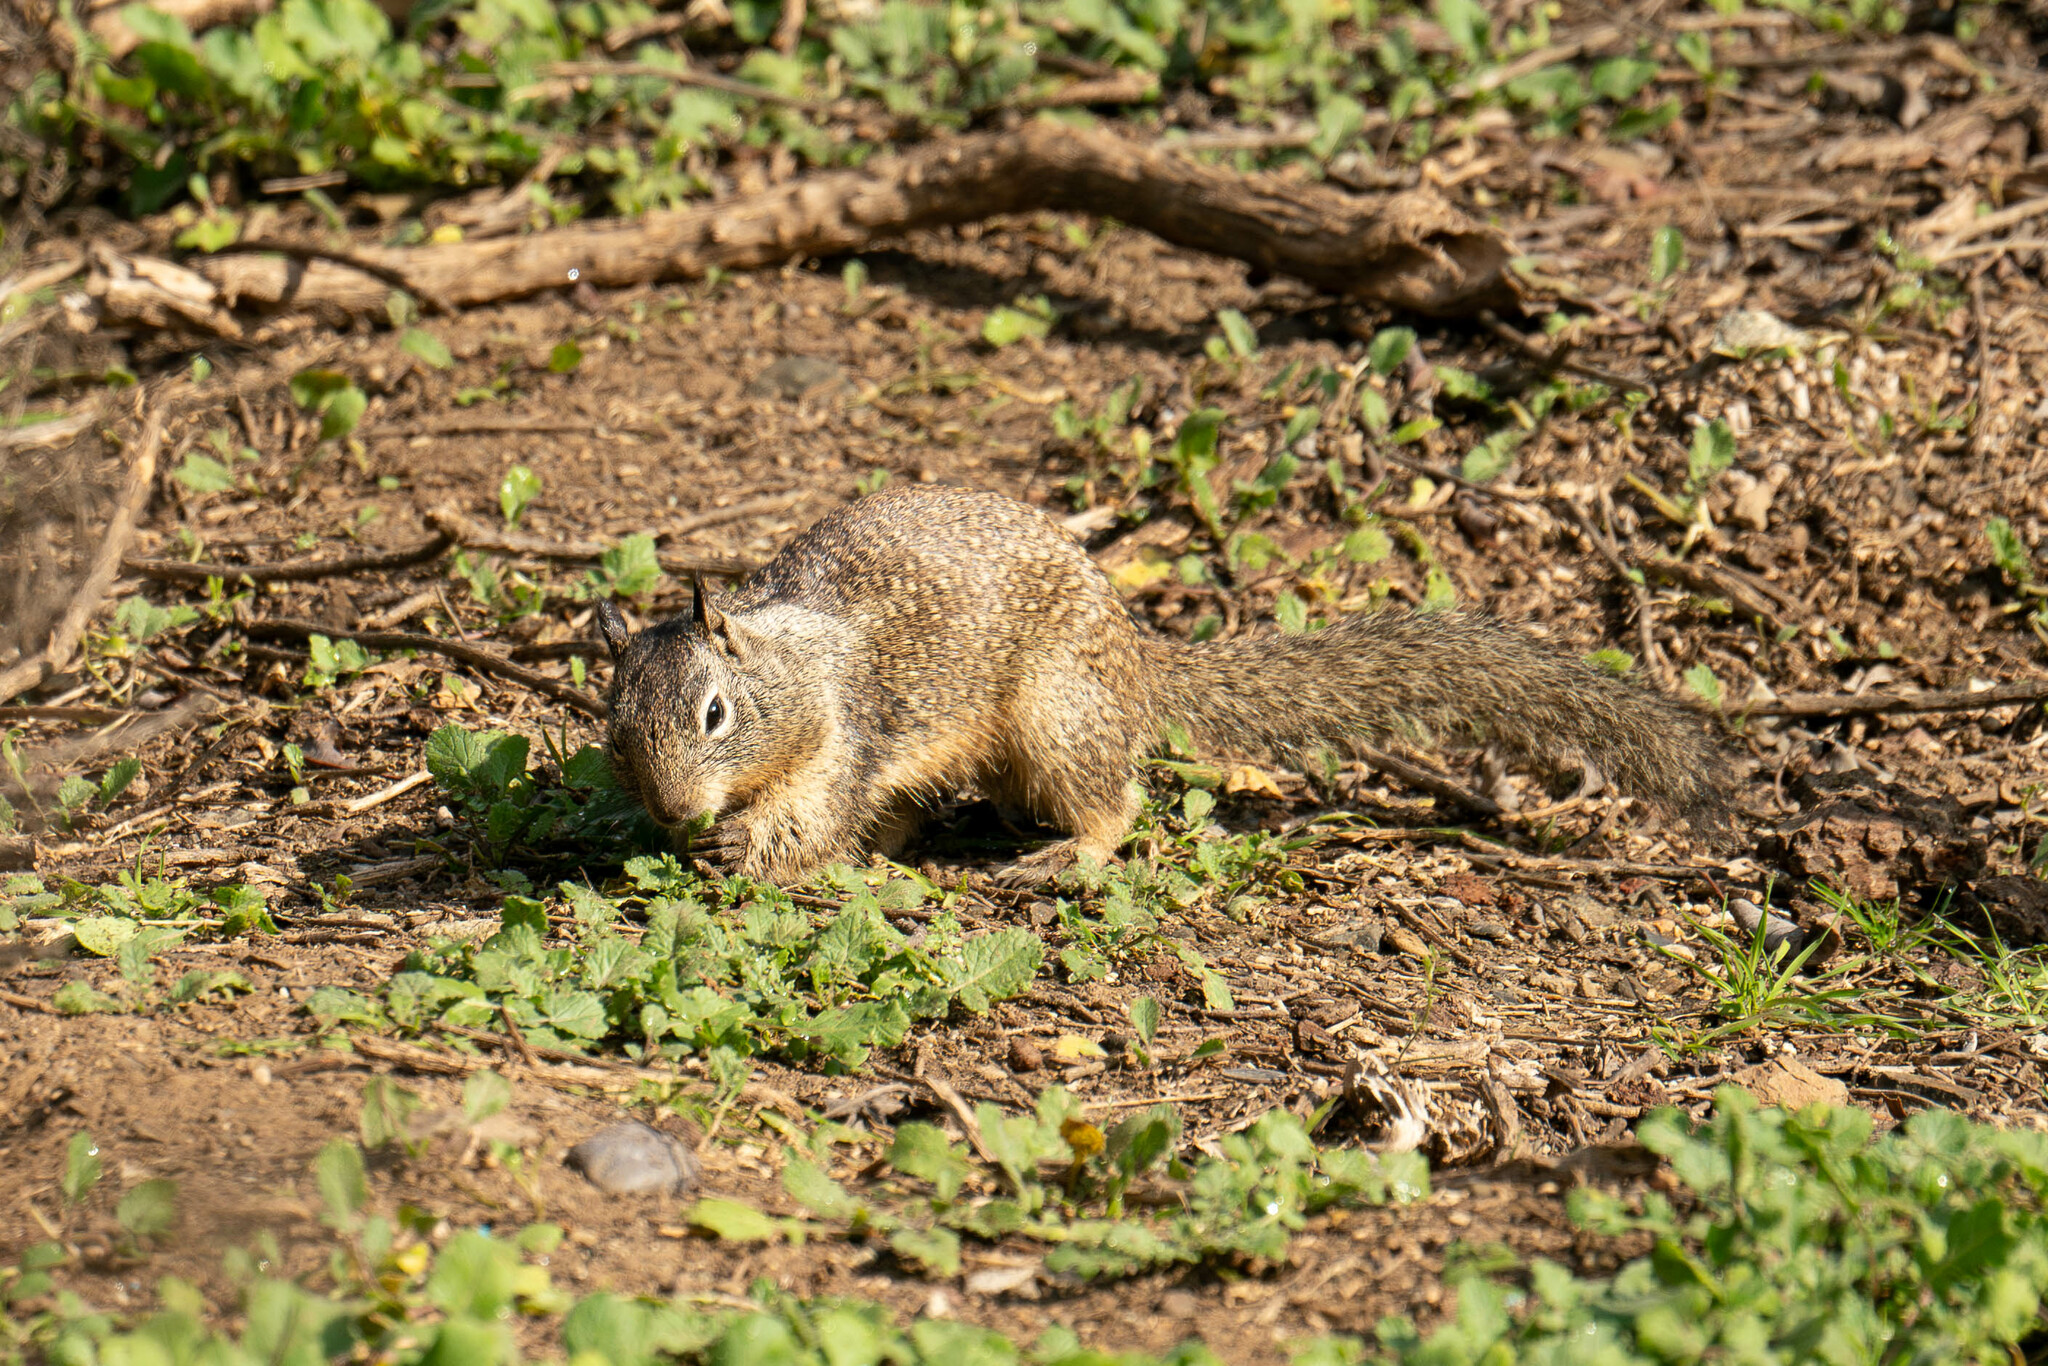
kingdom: Animalia
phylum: Chordata
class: Mammalia
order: Rodentia
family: Sciuridae
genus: Otospermophilus
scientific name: Otospermophilus beecheyi
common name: California ground squirrel
